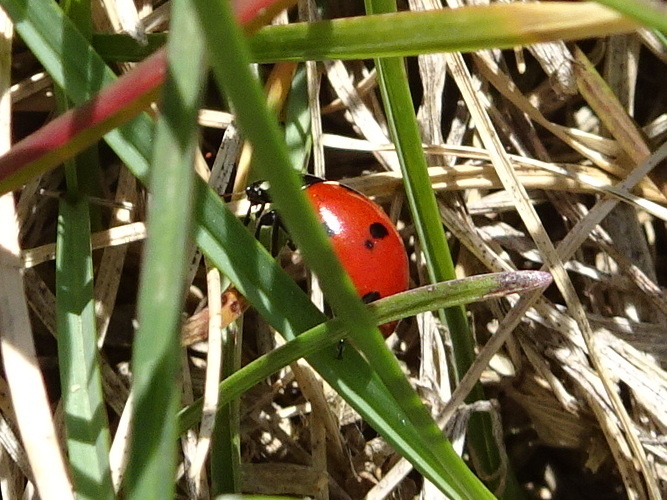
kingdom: Animalia
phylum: Arthropoda
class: Insecta
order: Coleoptera
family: Coccinellidae
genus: Coccinella
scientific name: Coccinella septempunctata
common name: Sevenspotted lady beetle
